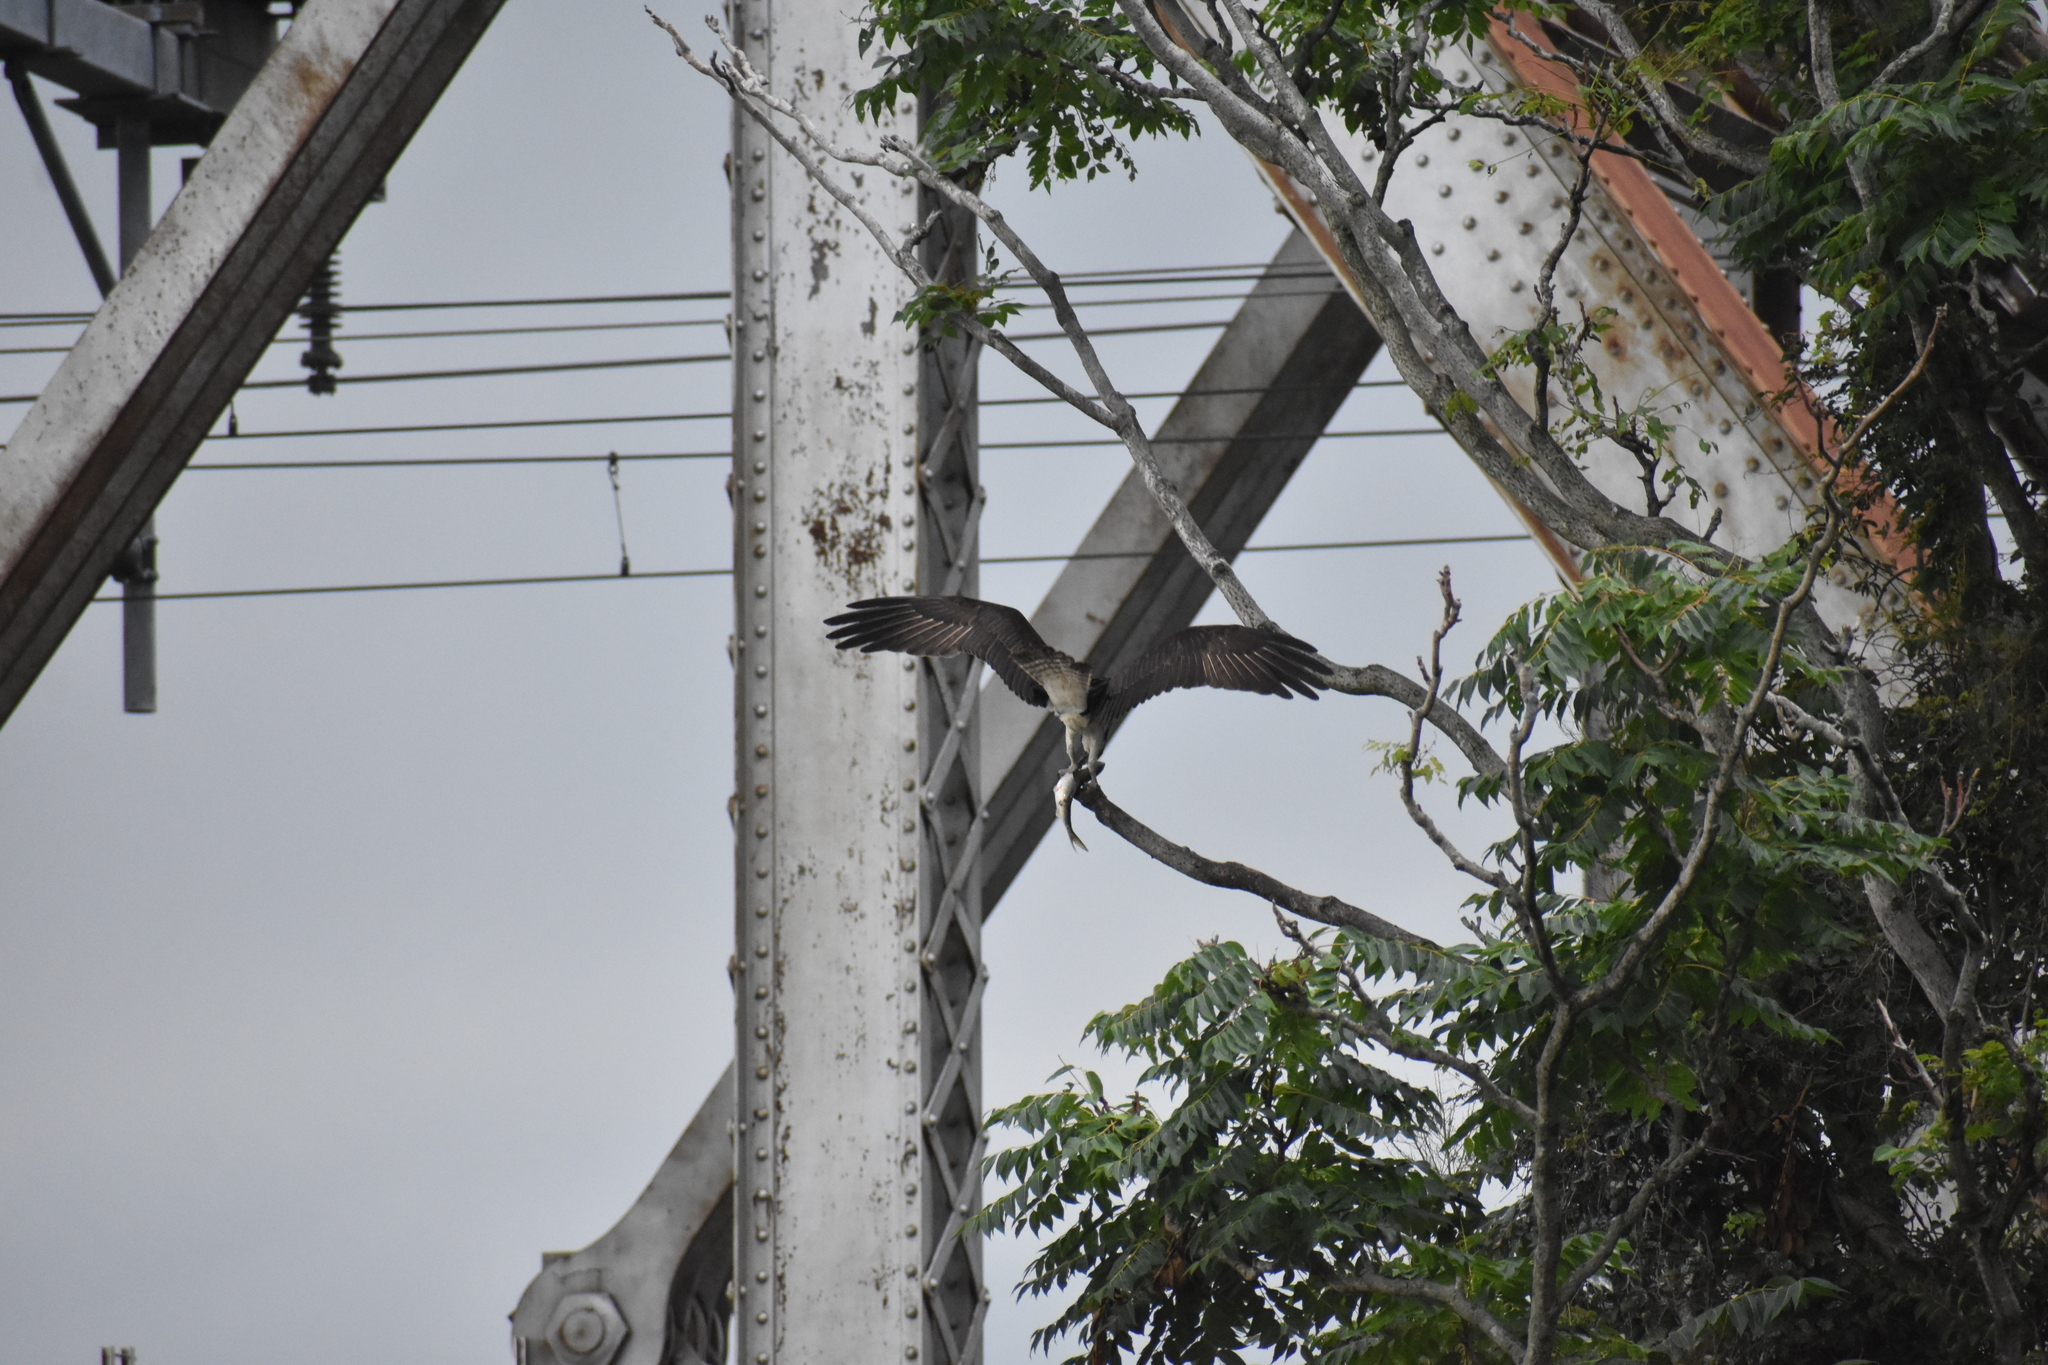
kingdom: Animalia
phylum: Chordata
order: Clupeiformes
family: Clupeidae
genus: Brevoortia
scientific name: Brevoortia tyrannus
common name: Atlantic menhaden
